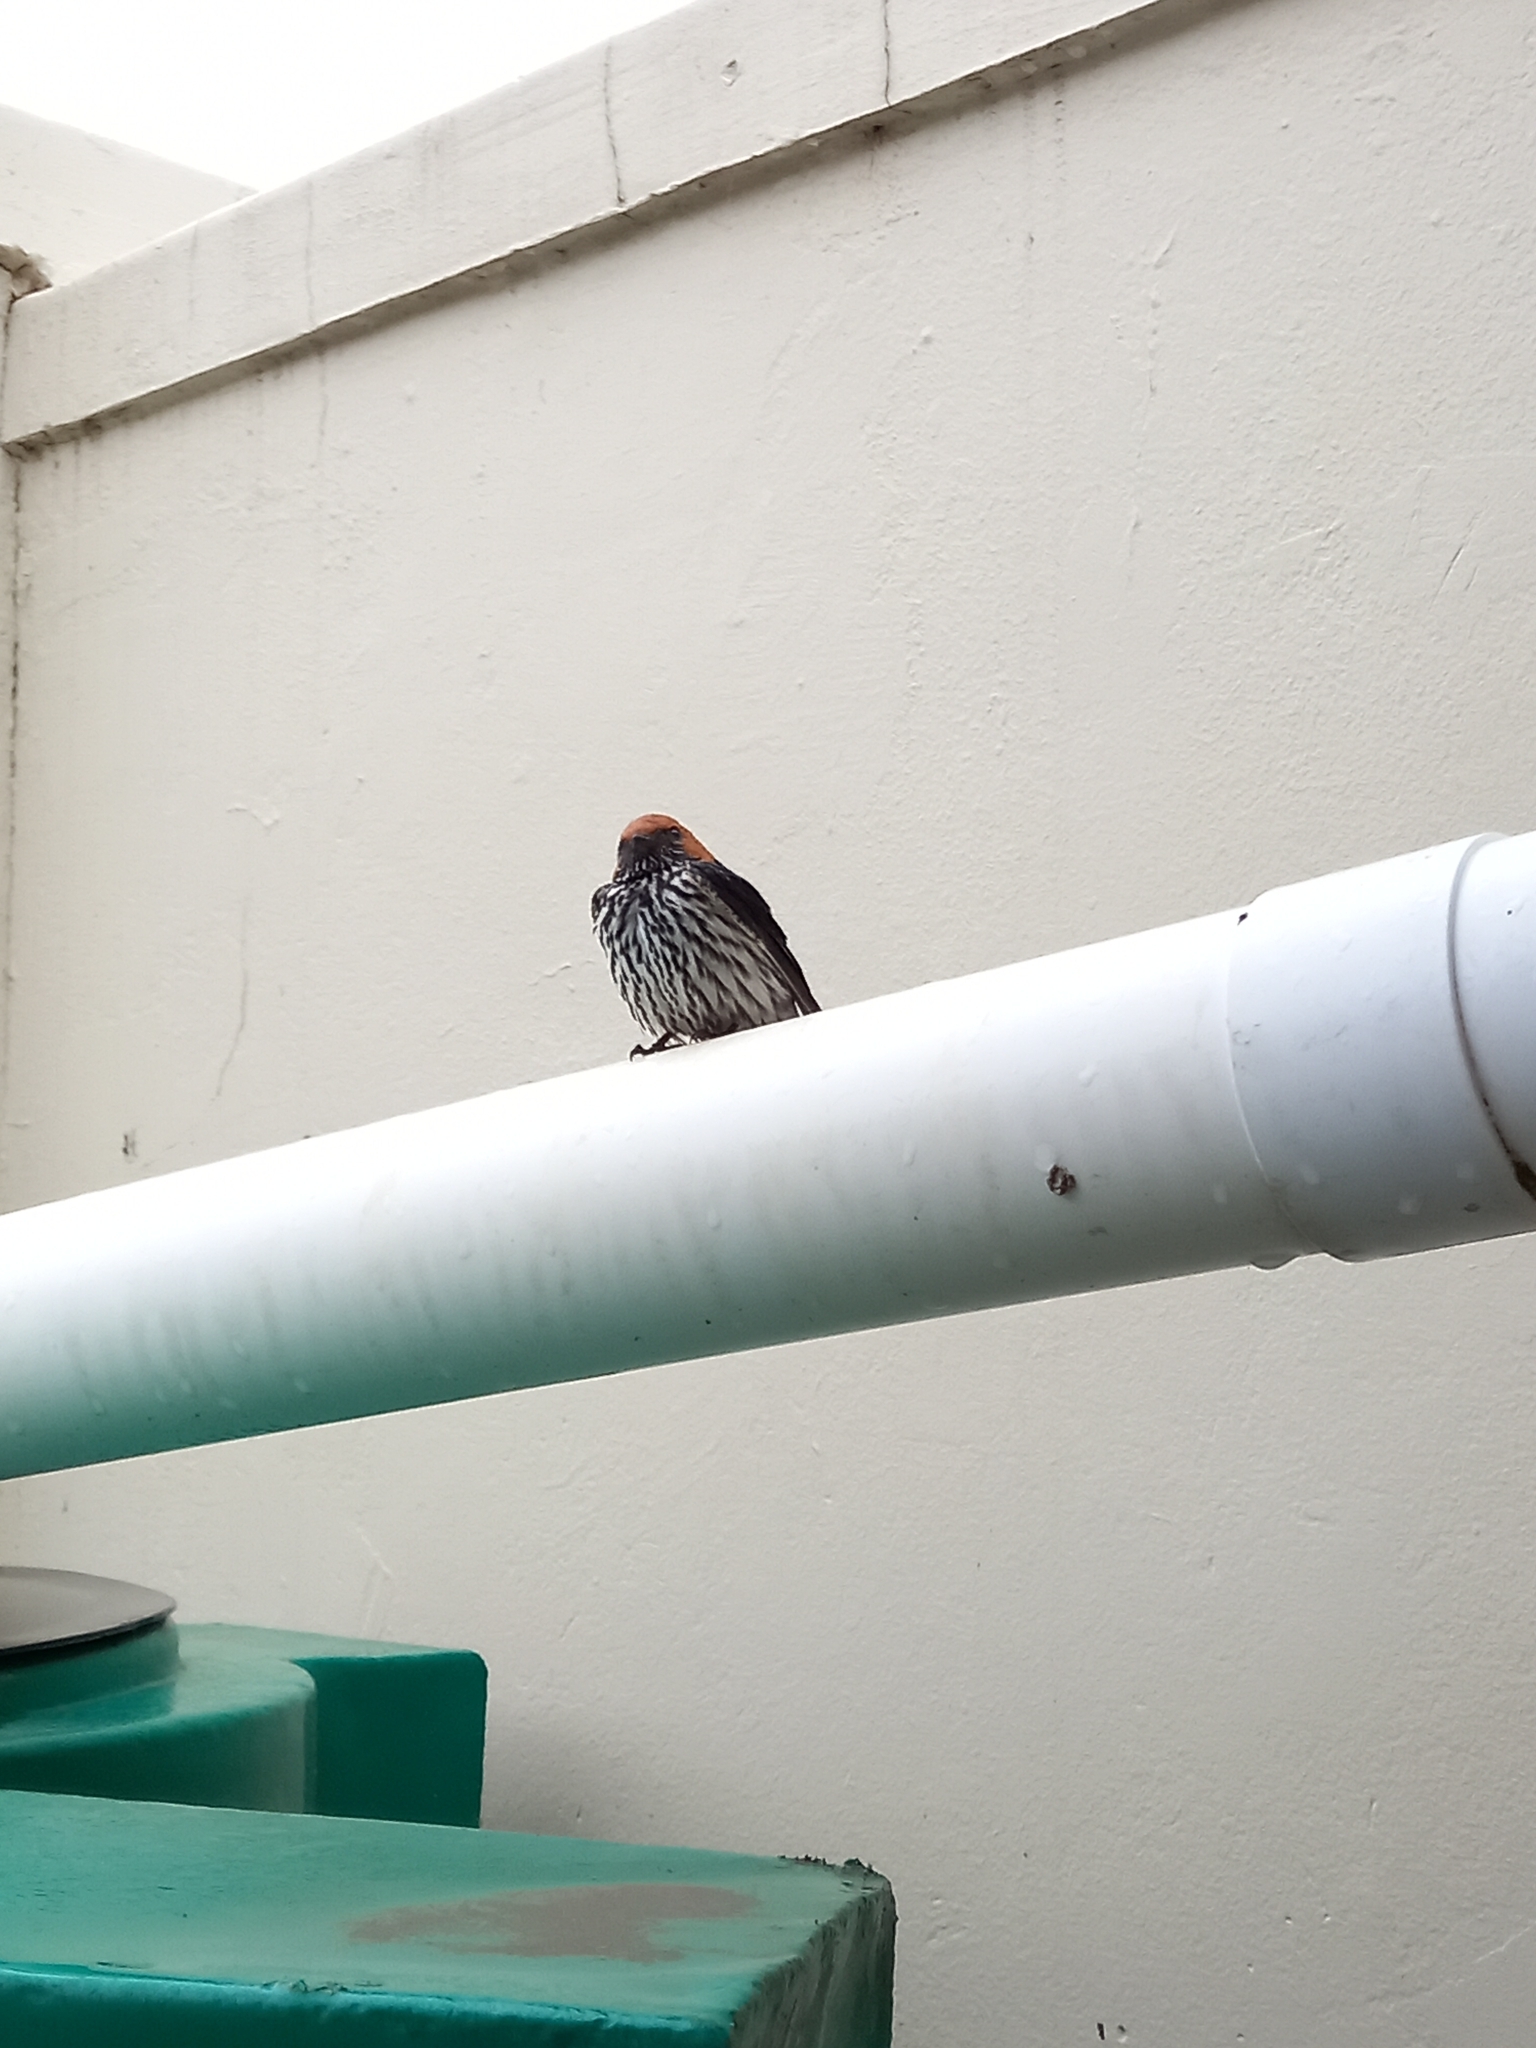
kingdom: Animalia
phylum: Chordata
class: Aves
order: Passeriformes
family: Hirundinidae
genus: Cecropis
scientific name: Cecropis abyssinica
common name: Lesser striped-swallow
